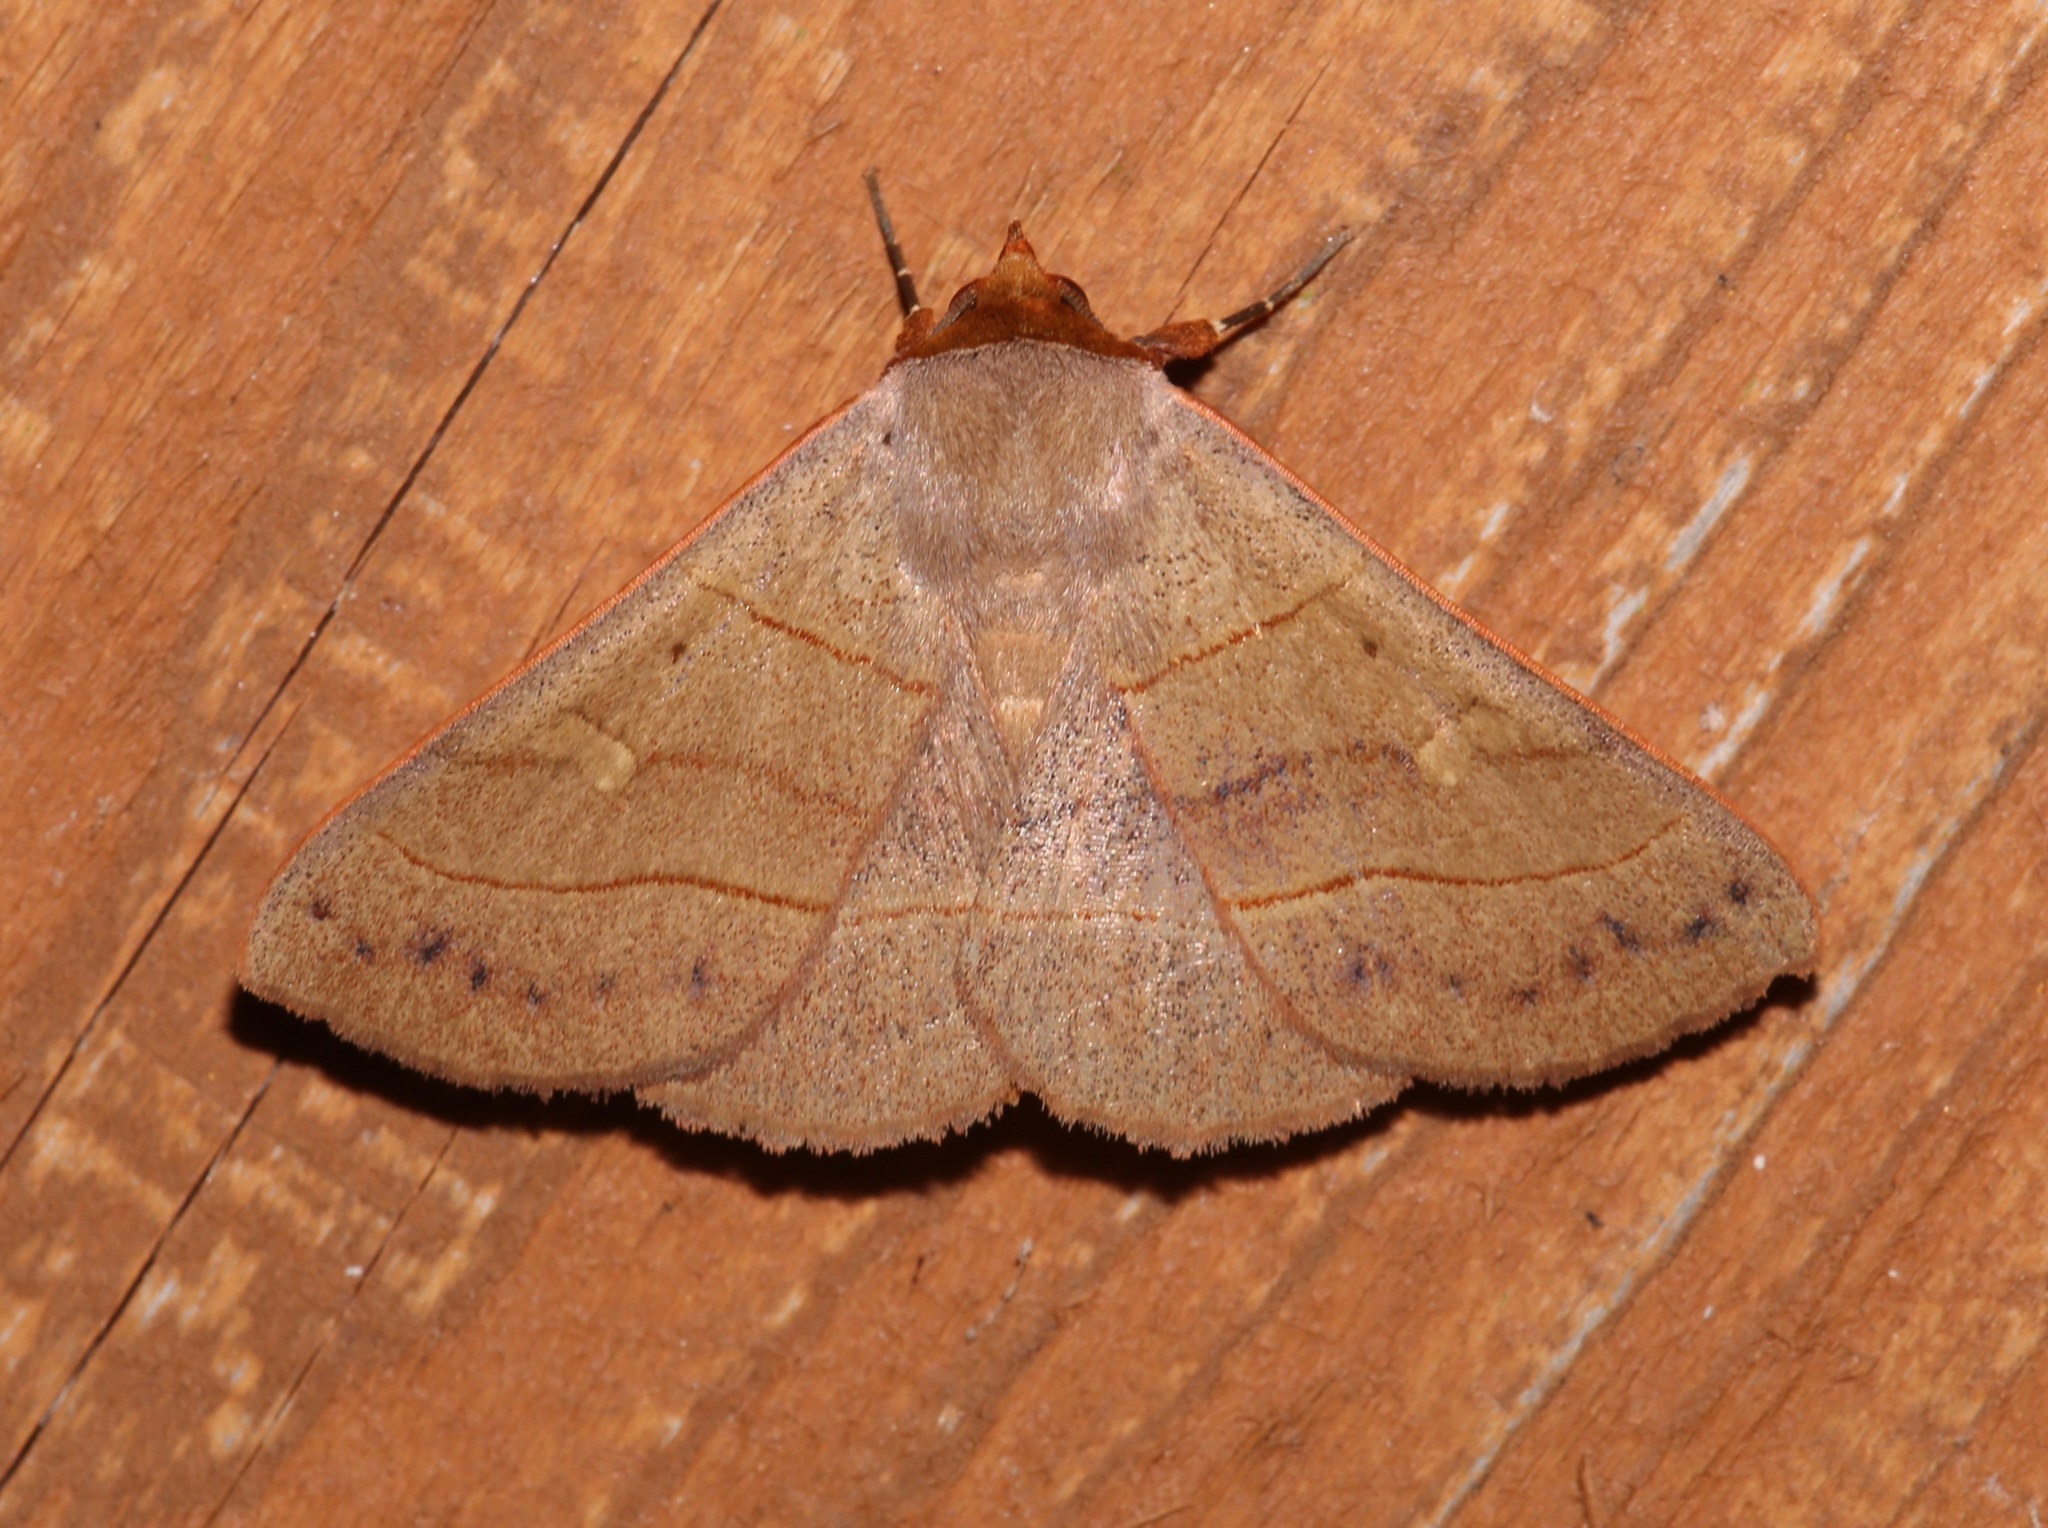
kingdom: Animalia
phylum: Arthropoda
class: Insecta
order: Lepidoptera
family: Erebidae
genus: Panopoda
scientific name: Panopoda rufimargo
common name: Red-lined panopoda moth
